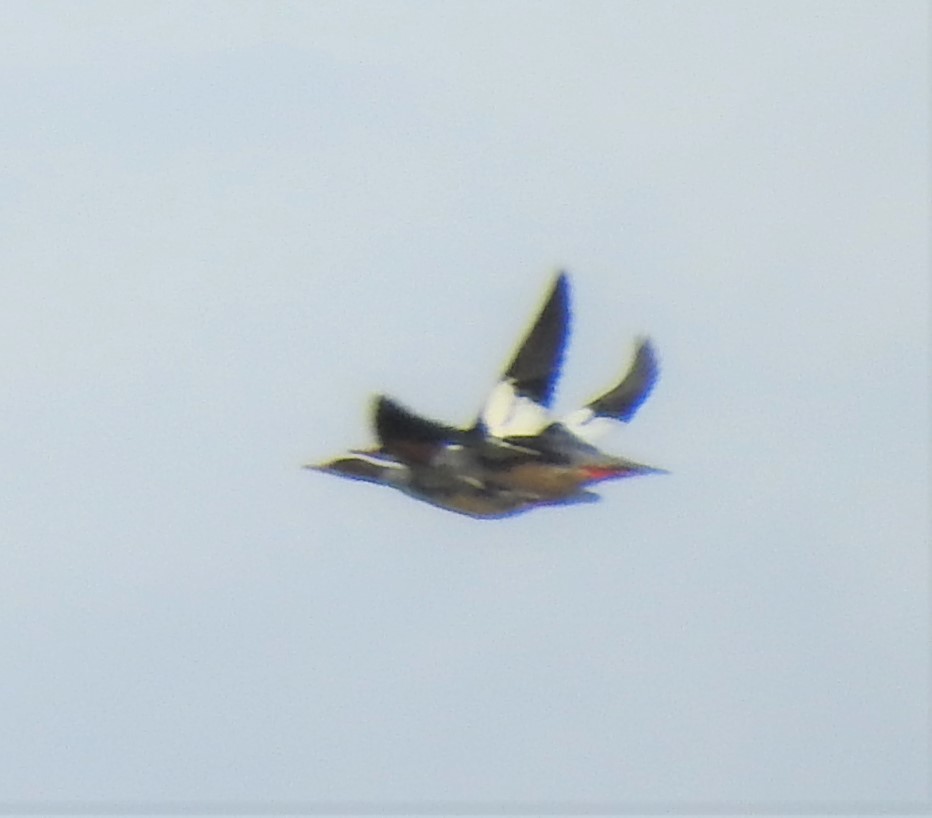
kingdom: Animalia
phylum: Chordata
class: Aves
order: Anseriformes
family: Anatidae
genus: Mergus
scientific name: Mergus merganser
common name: Common merganser
